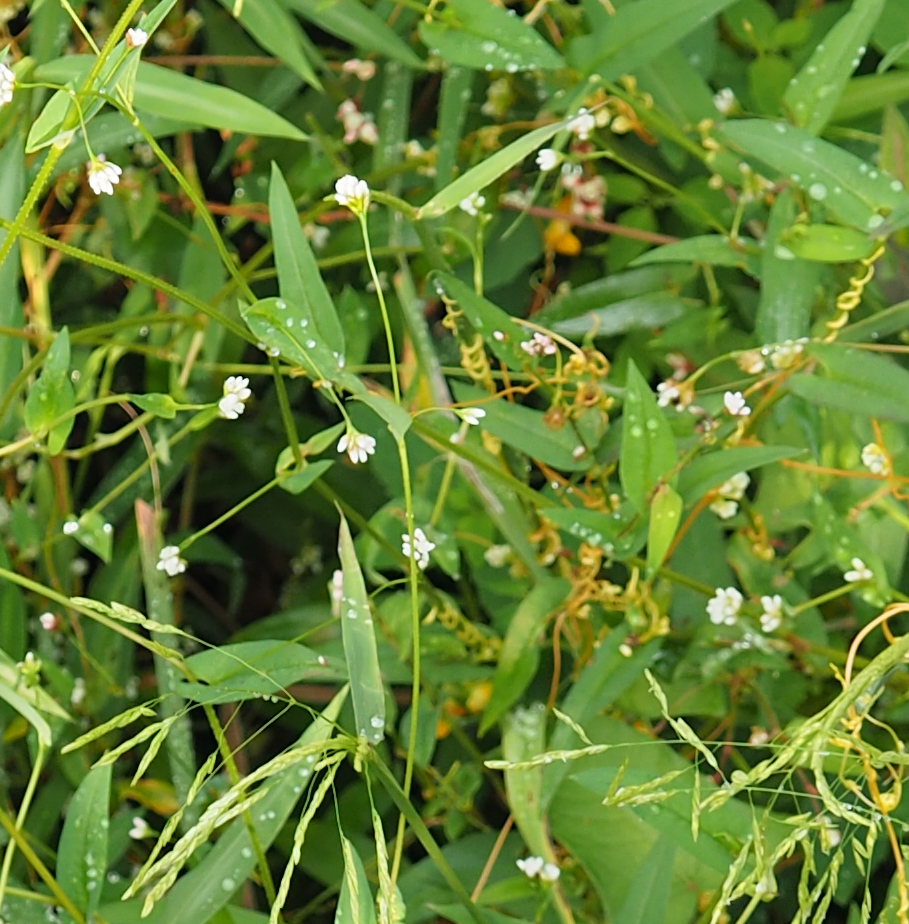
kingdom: Plantae
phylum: Tracheophyta
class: Magnoliopsida
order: Caryophyllales
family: Polygonaceae
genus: Persicaria
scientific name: Persicaria sagittata
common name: American tearthumb
